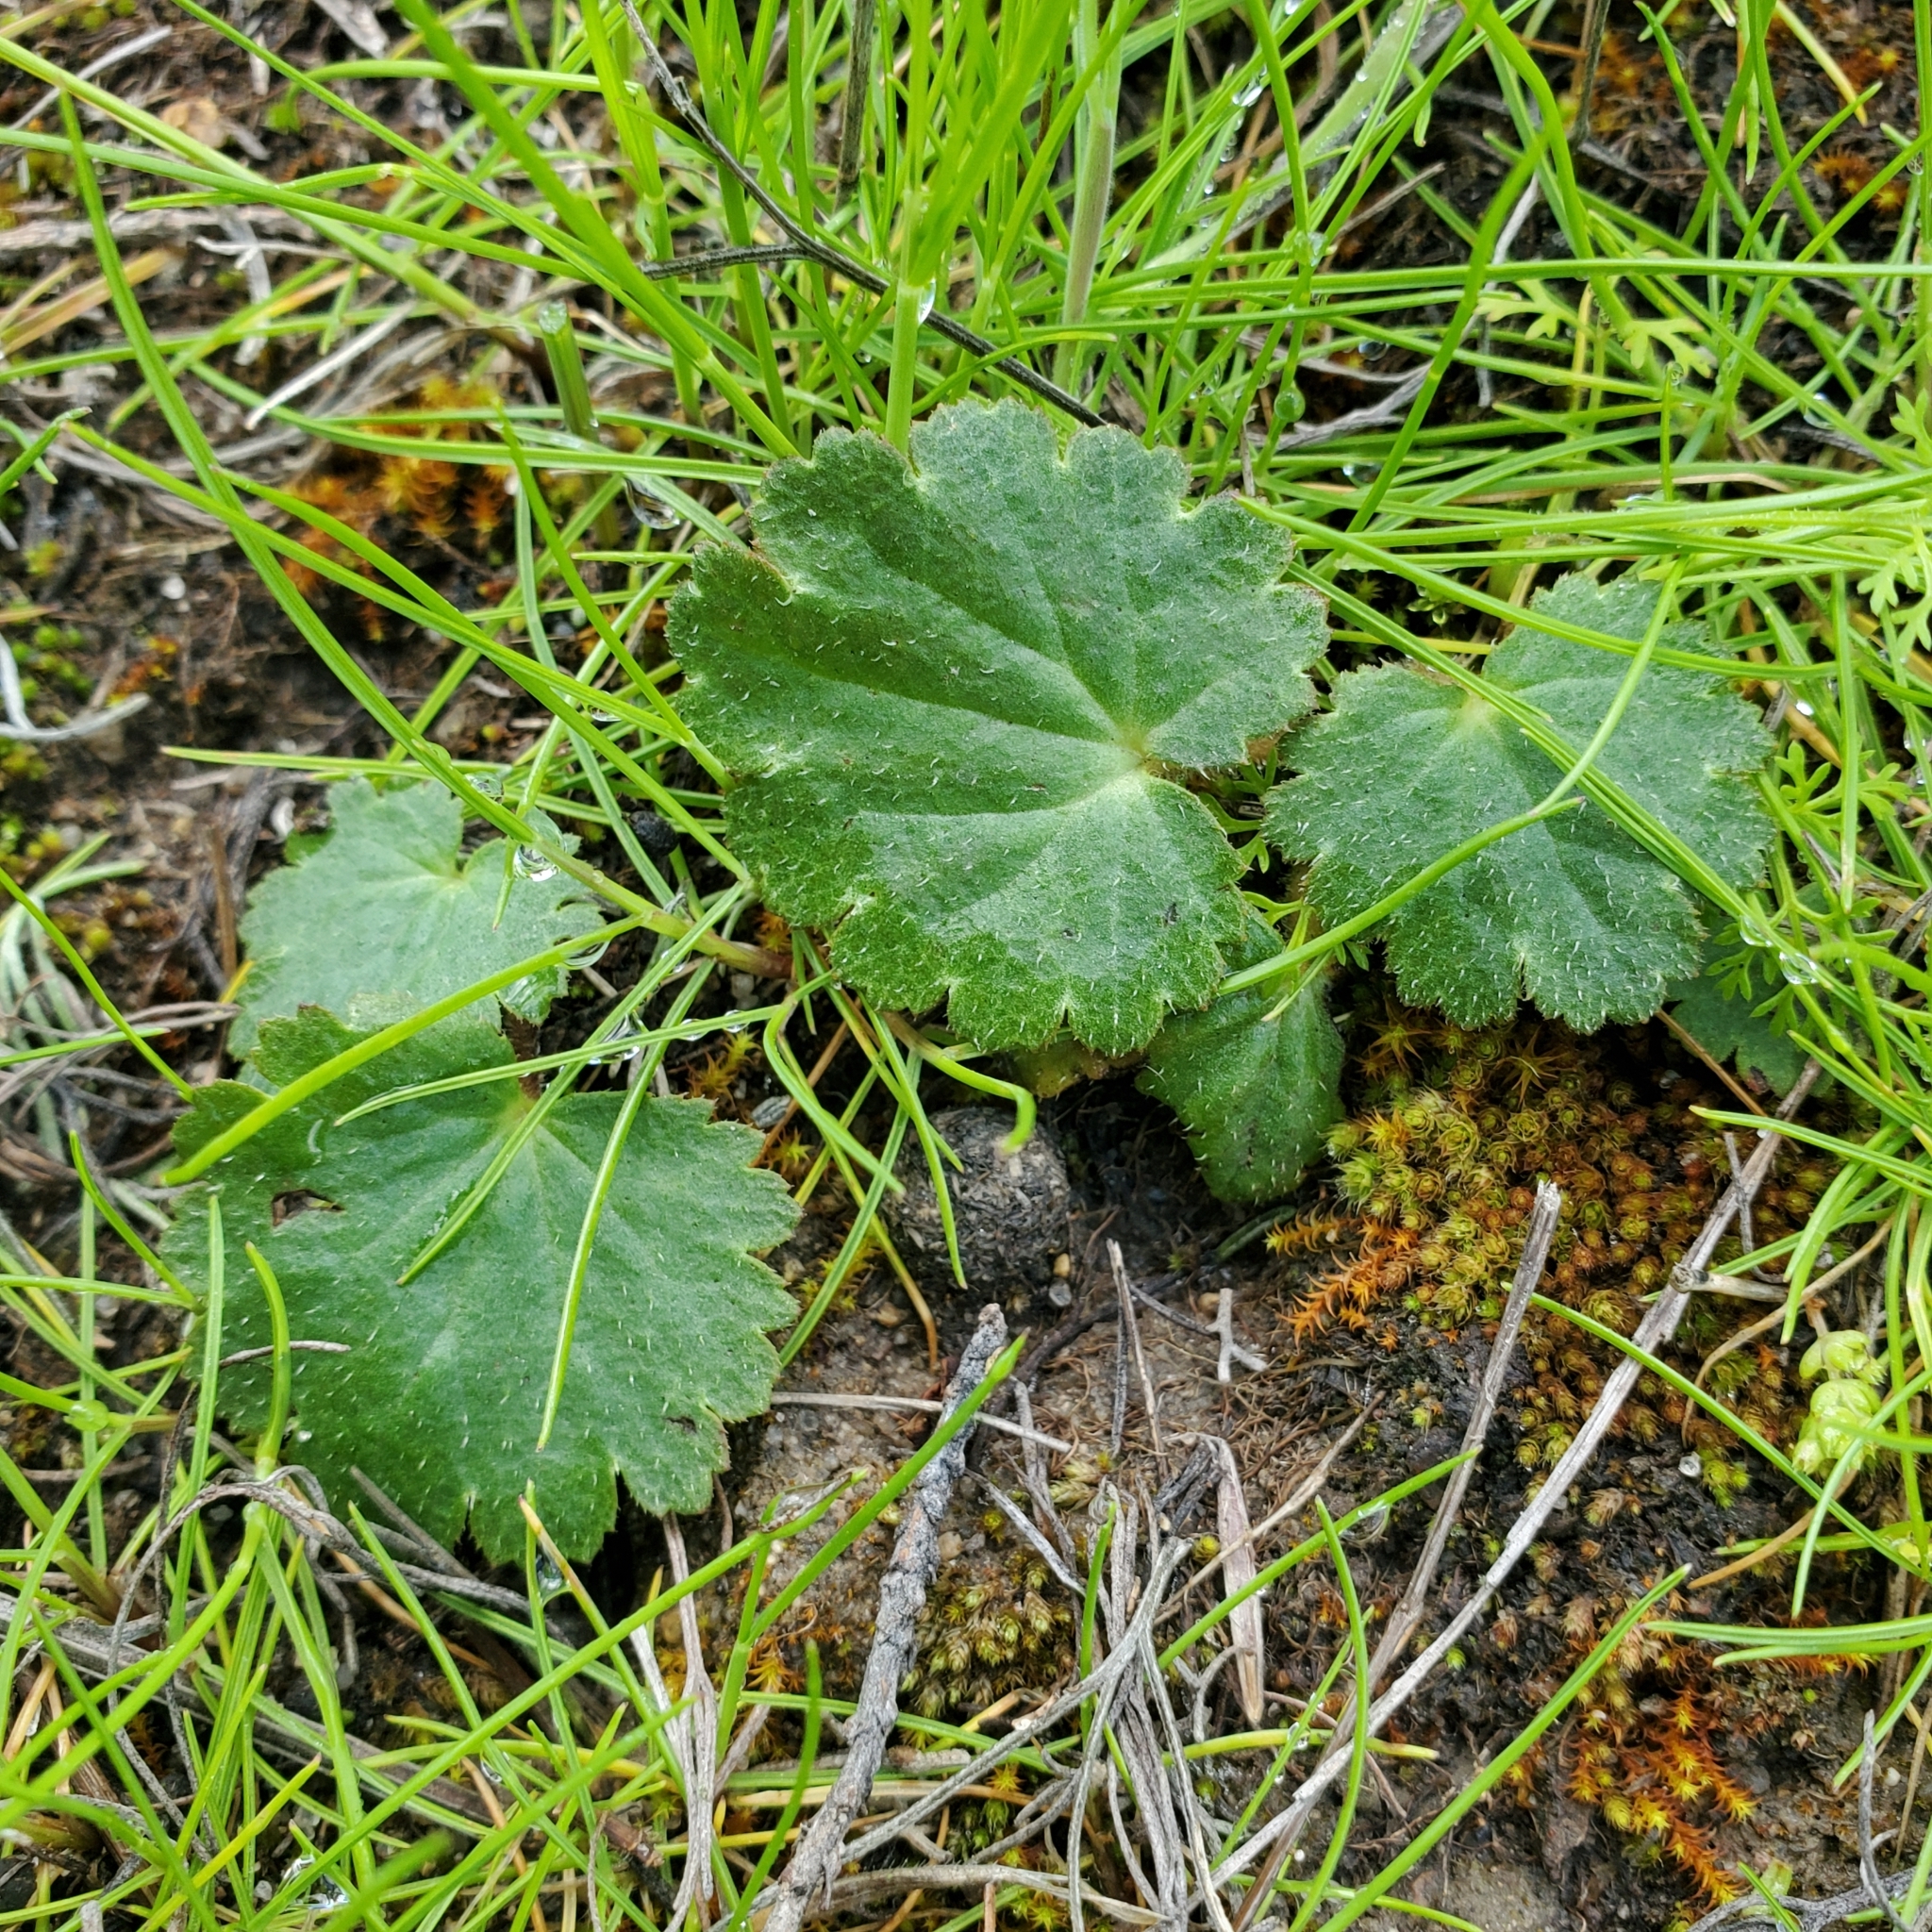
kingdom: Plantae
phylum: Tracheophyta
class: Magnoliopsida
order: Saxifragales
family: Saxifragaceae
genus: Jepsonia
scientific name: Jepsonia parryi
